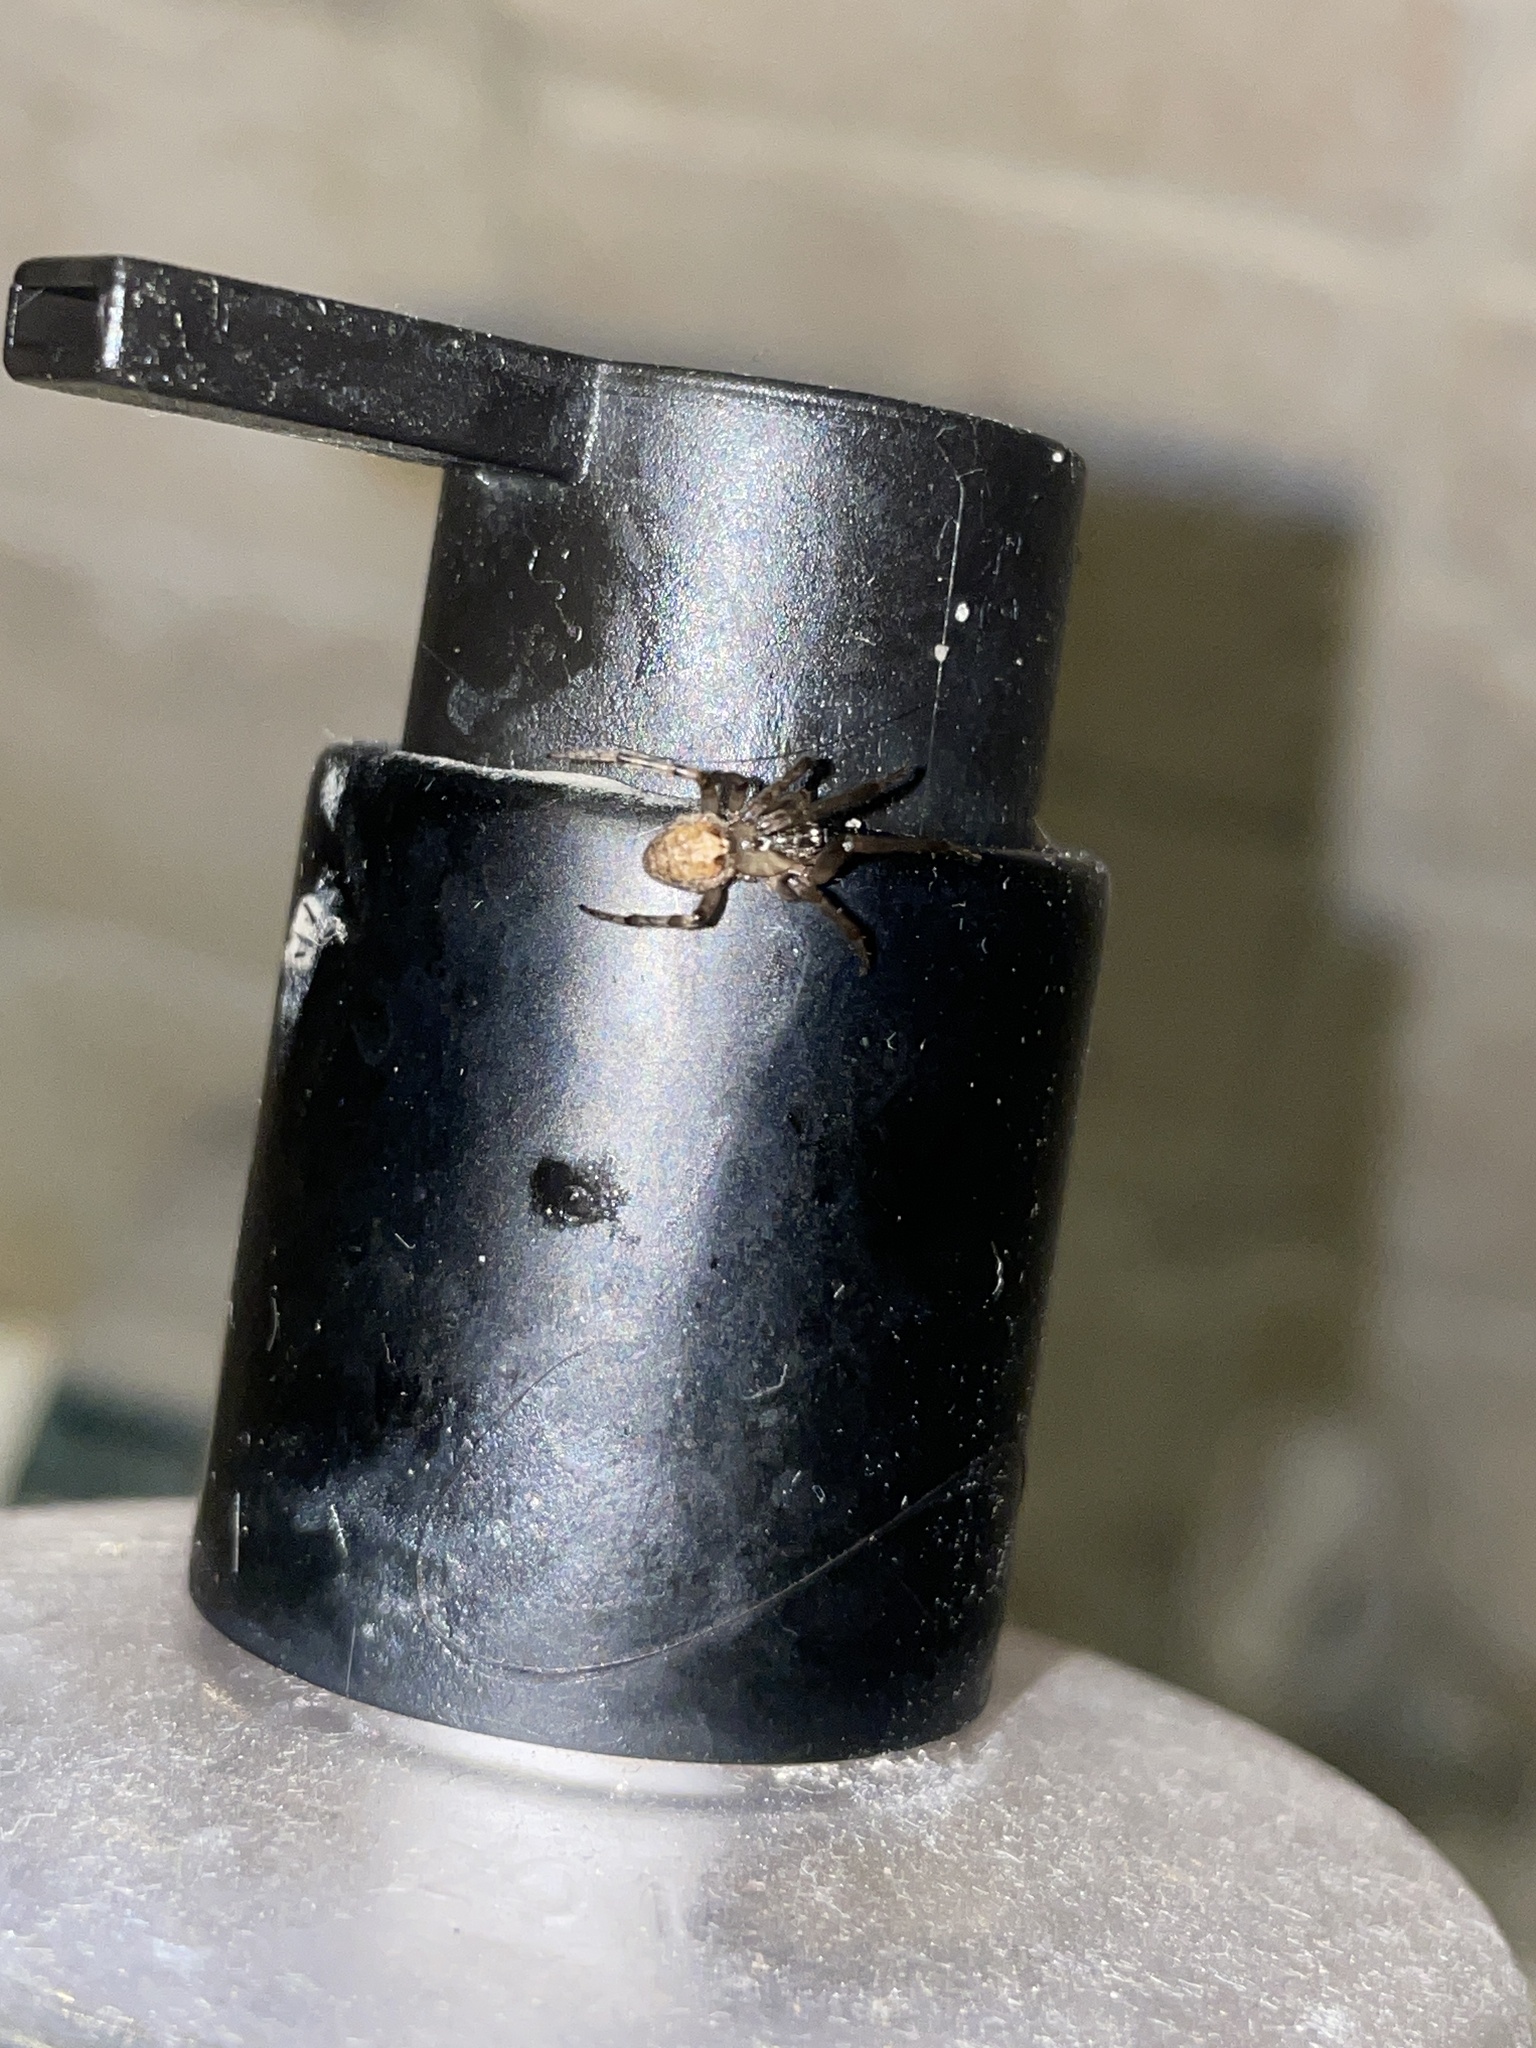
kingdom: Animalia
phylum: Arthropoda
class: Arachnida
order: Araneae
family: Araneidae
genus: Zygiella
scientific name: Zygiella x-notata
